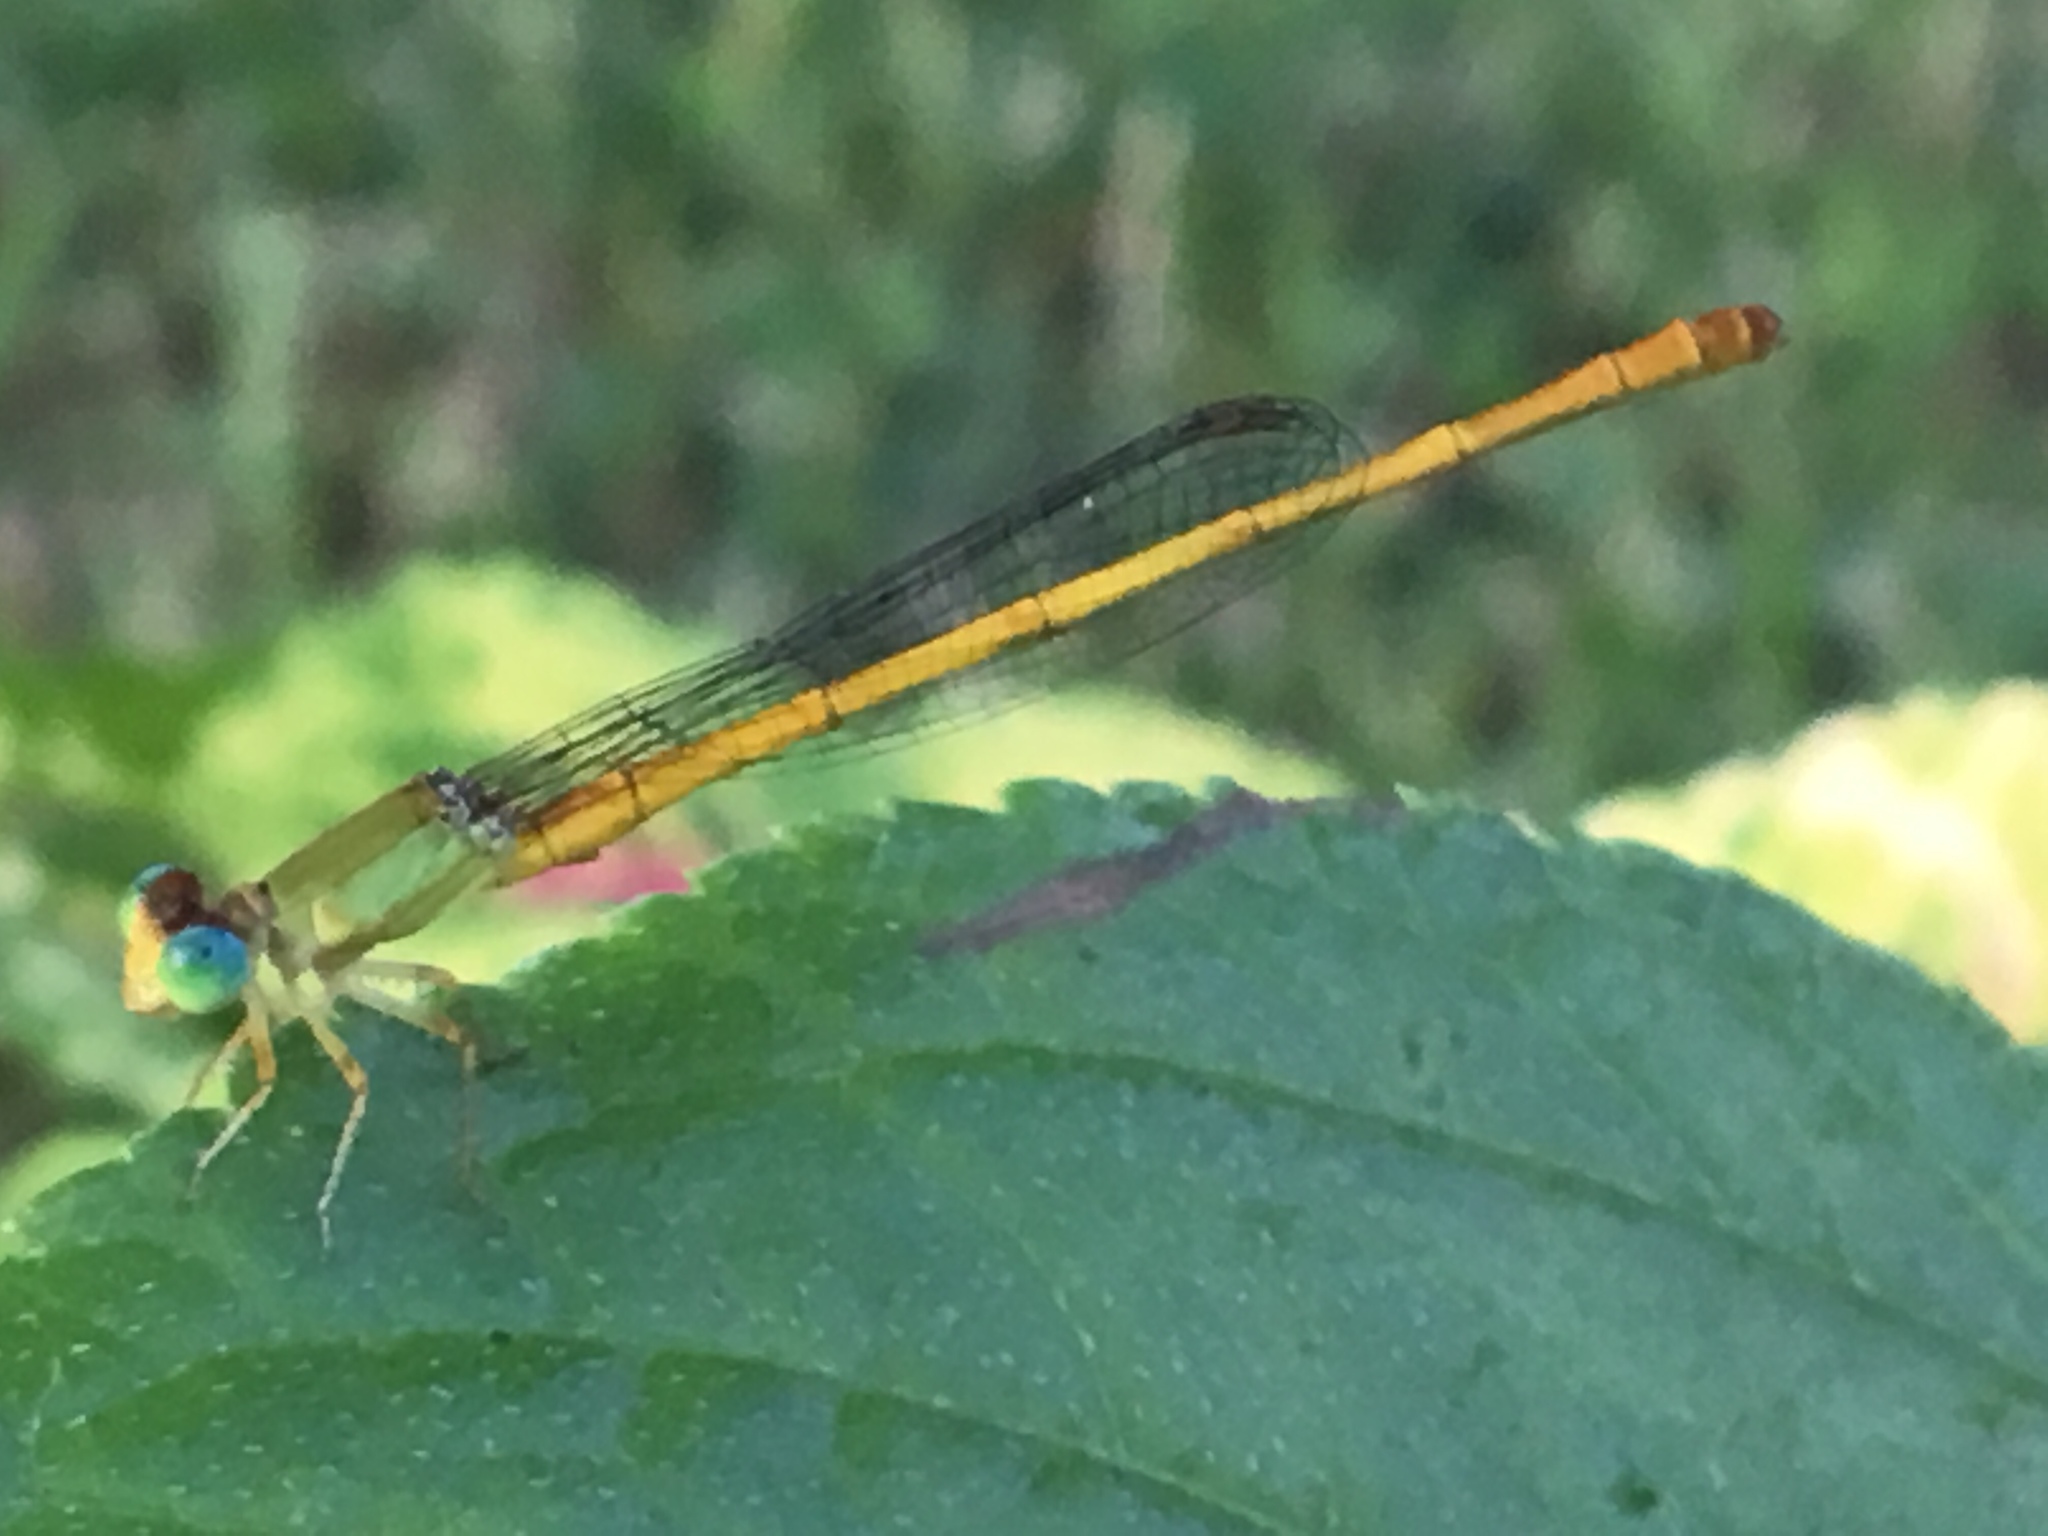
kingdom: Animalia
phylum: Arthropoda
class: Insecta
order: Odonata
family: Coenagrionidae
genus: Ceriagrion
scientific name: Ceriagrion coromandelianum
